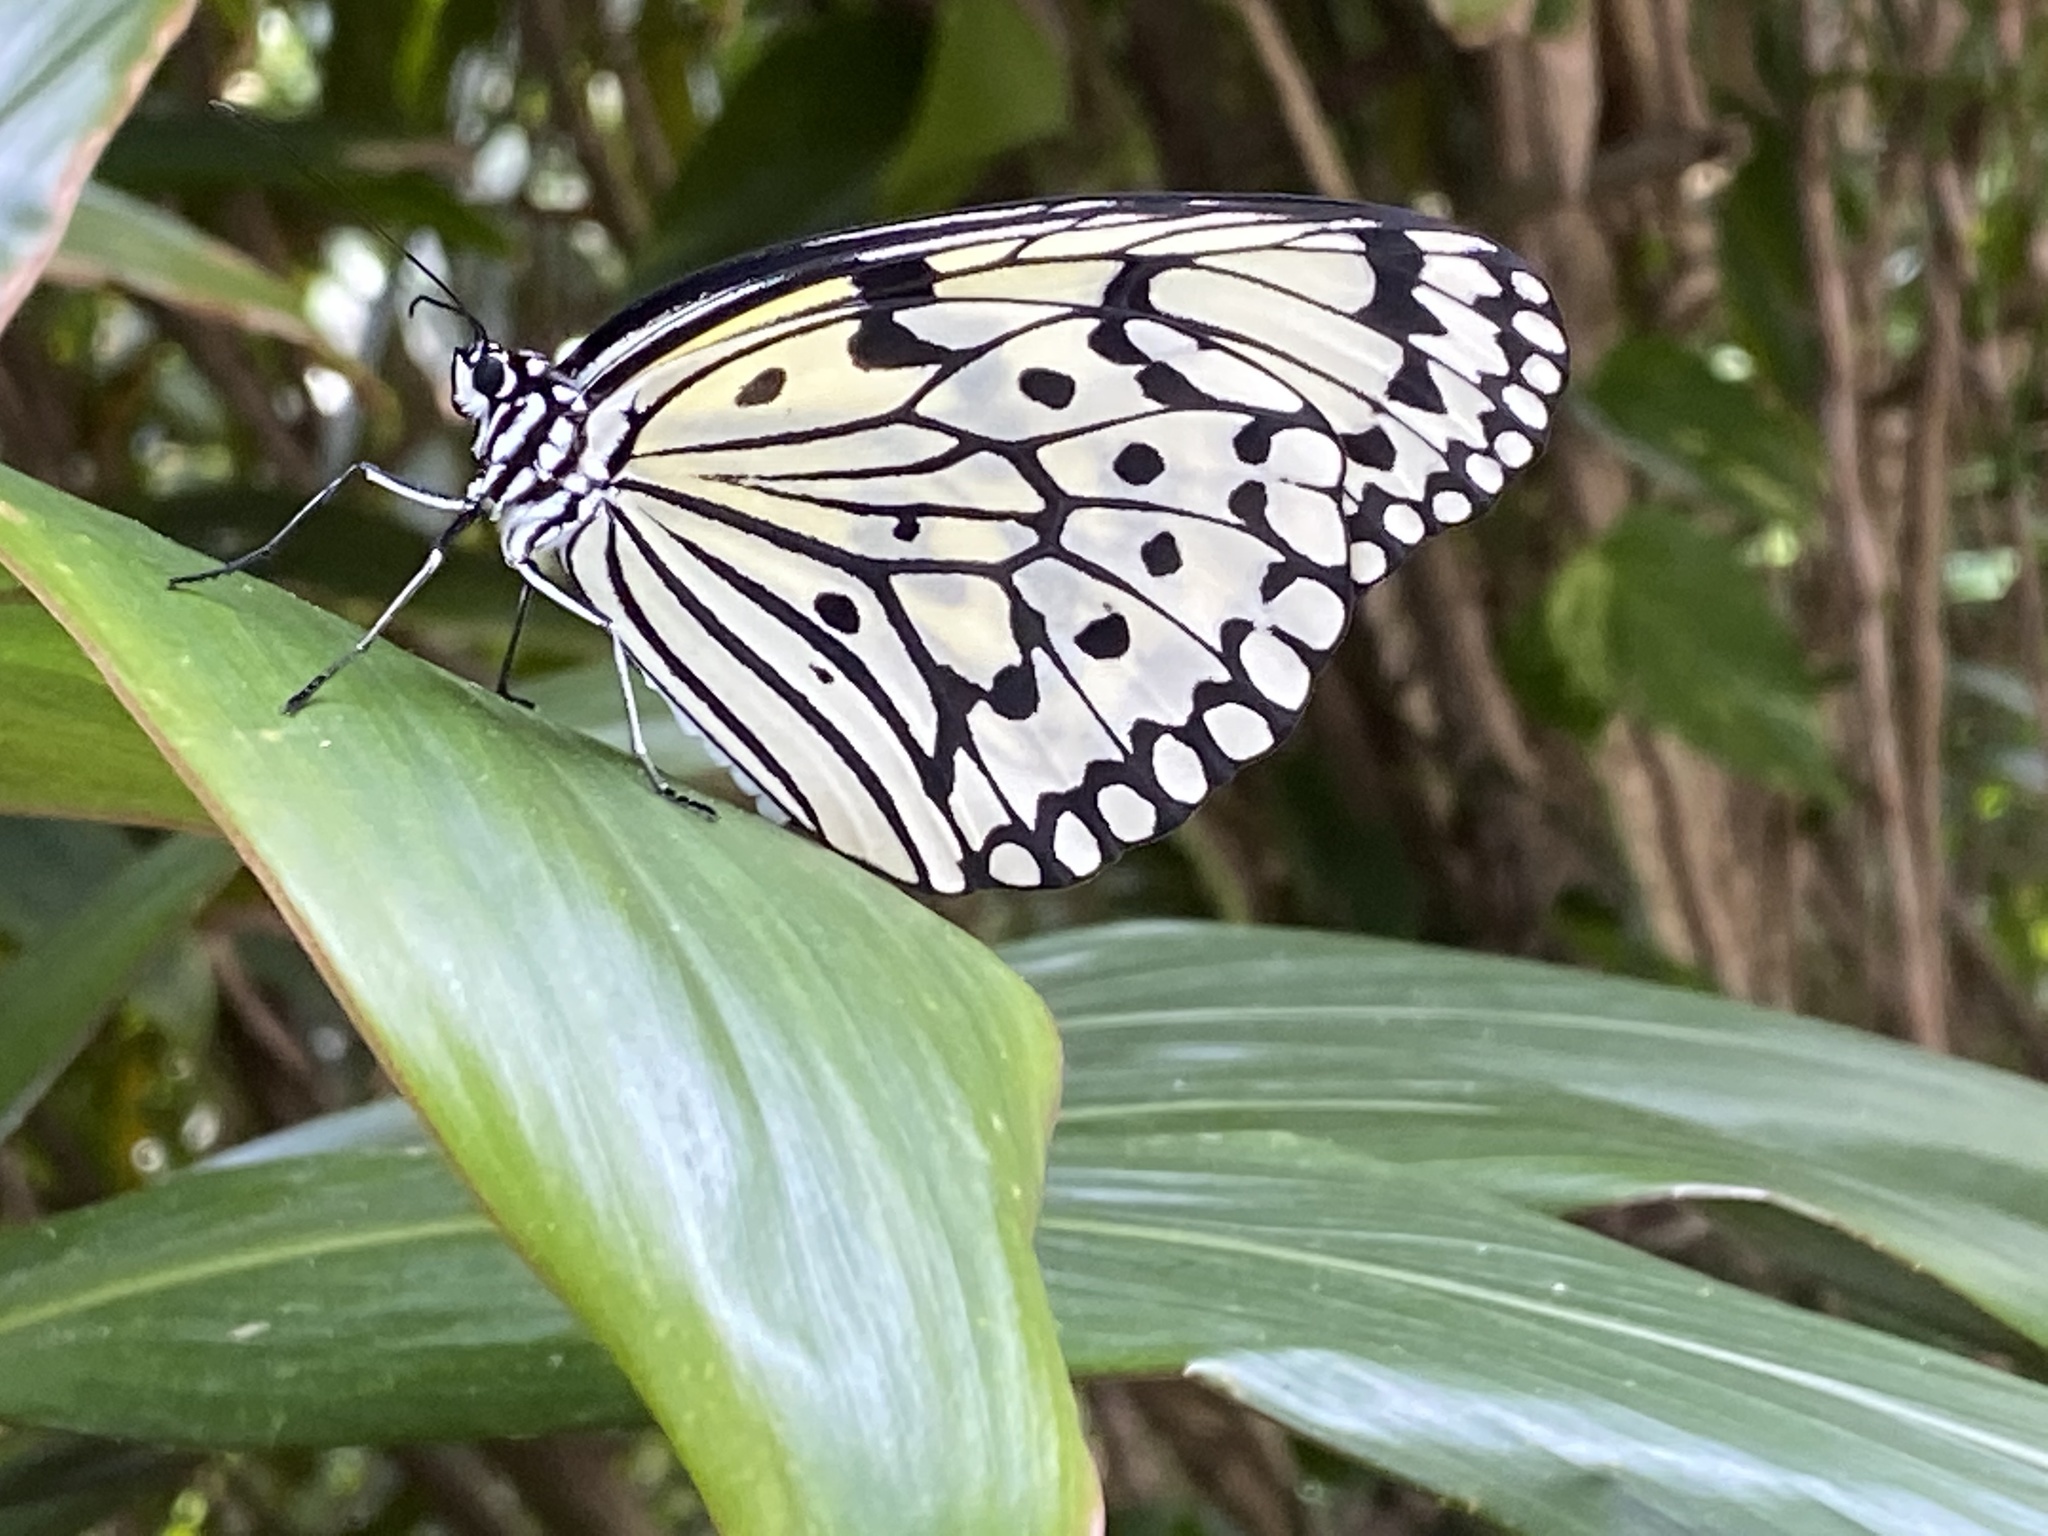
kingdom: Animalia
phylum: Arthropoda
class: Insecta
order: Lepidoptera
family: Nymphalidae
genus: Idea
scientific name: Idea leuconoe
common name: Rice paper butterfly
